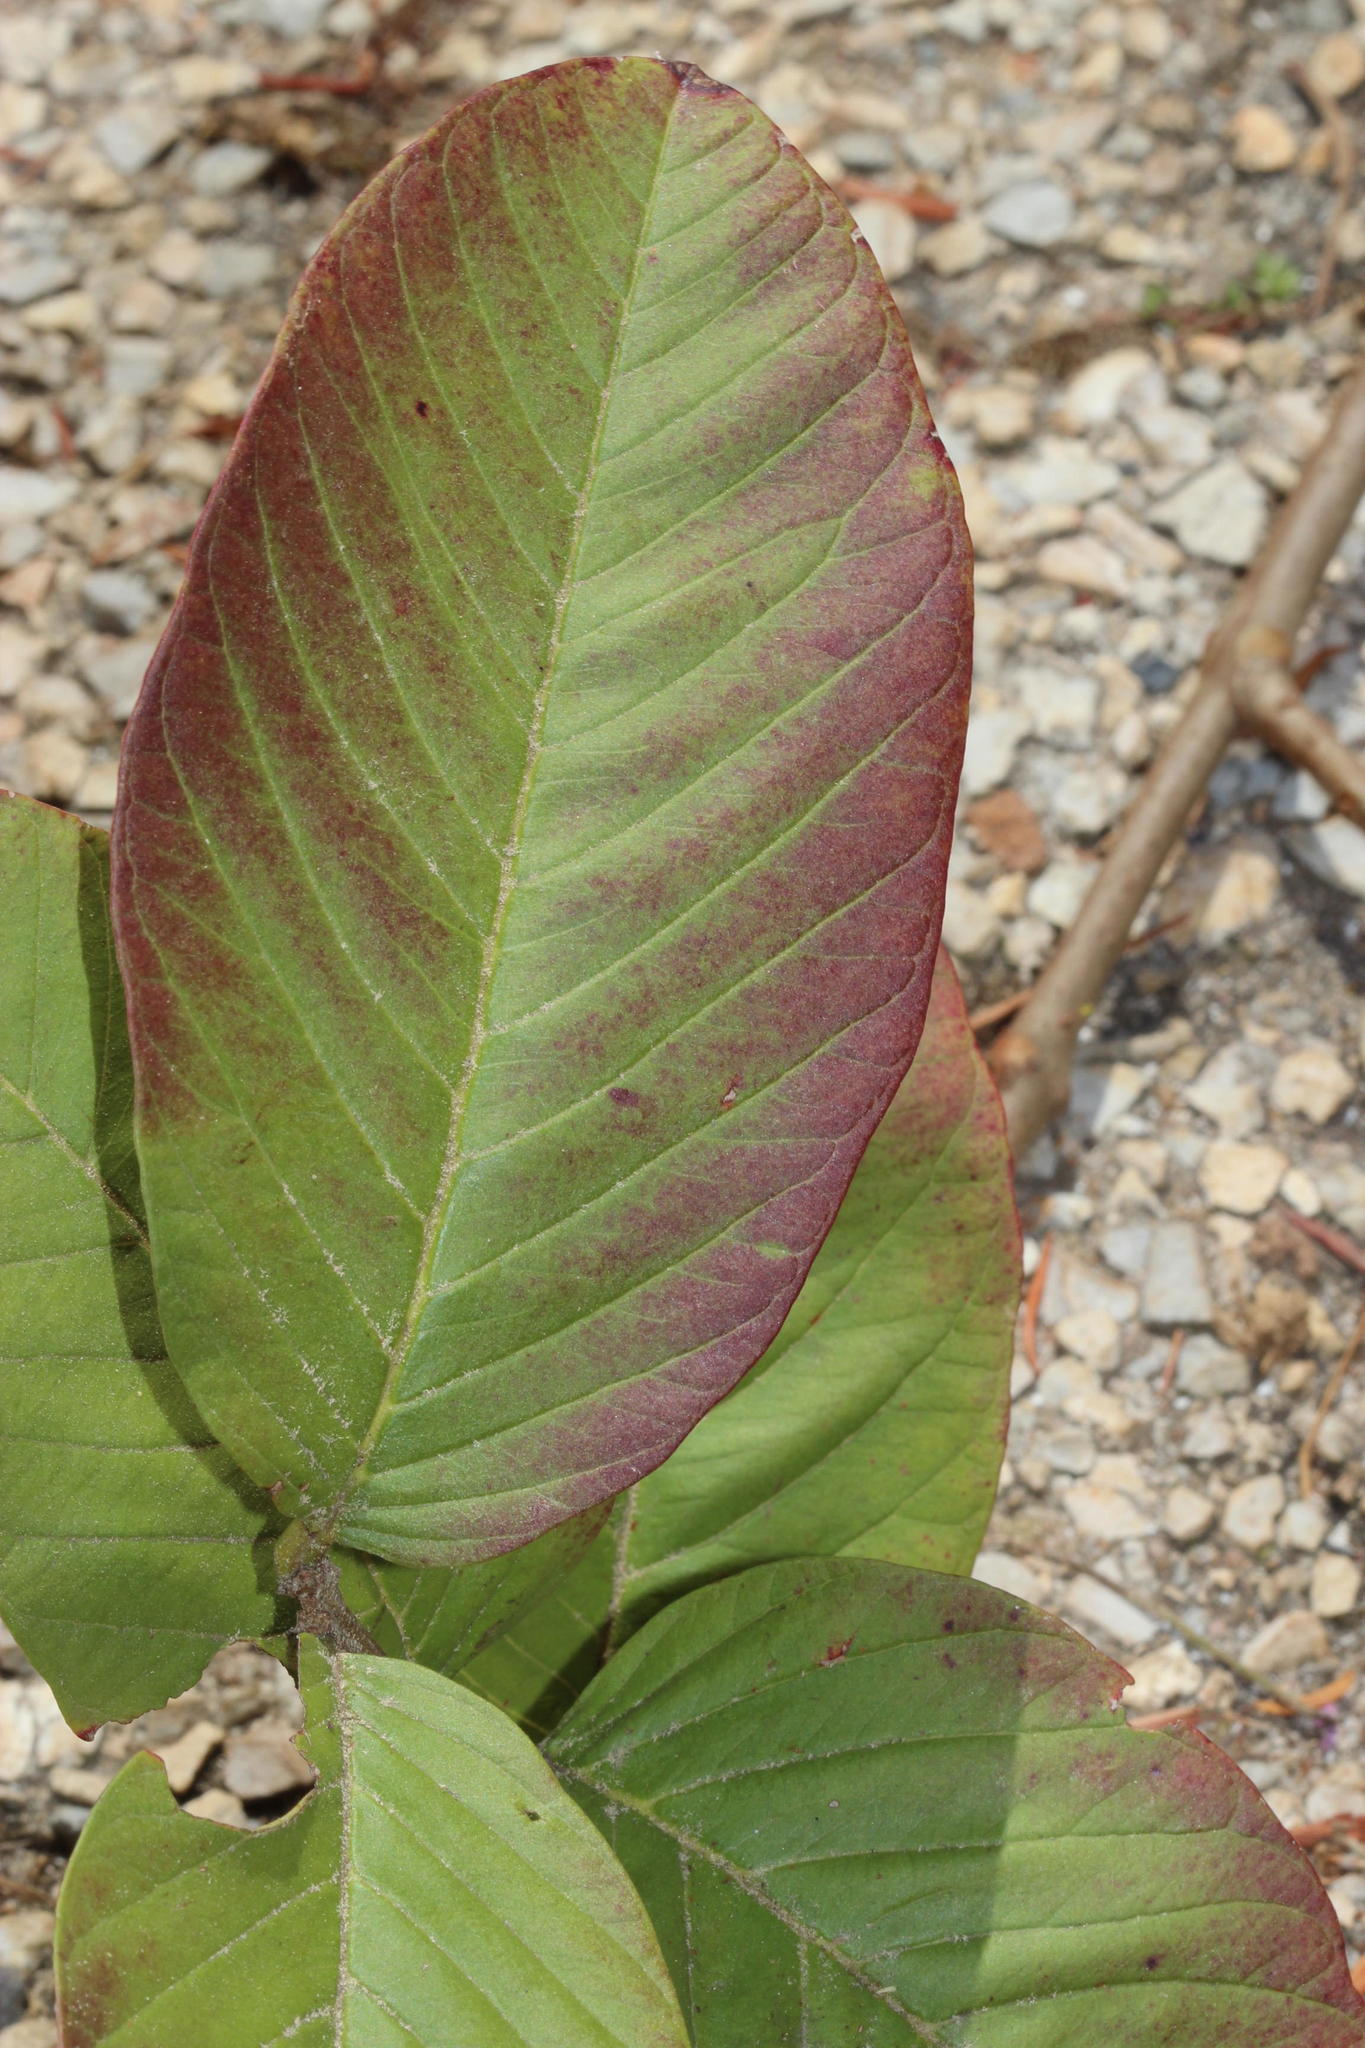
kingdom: Plantae
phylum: Tracheophyta
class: Magnoliopsida
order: Myrtales
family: Myrtaceae
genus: Psidium
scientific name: Psidium guajava
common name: Guava
